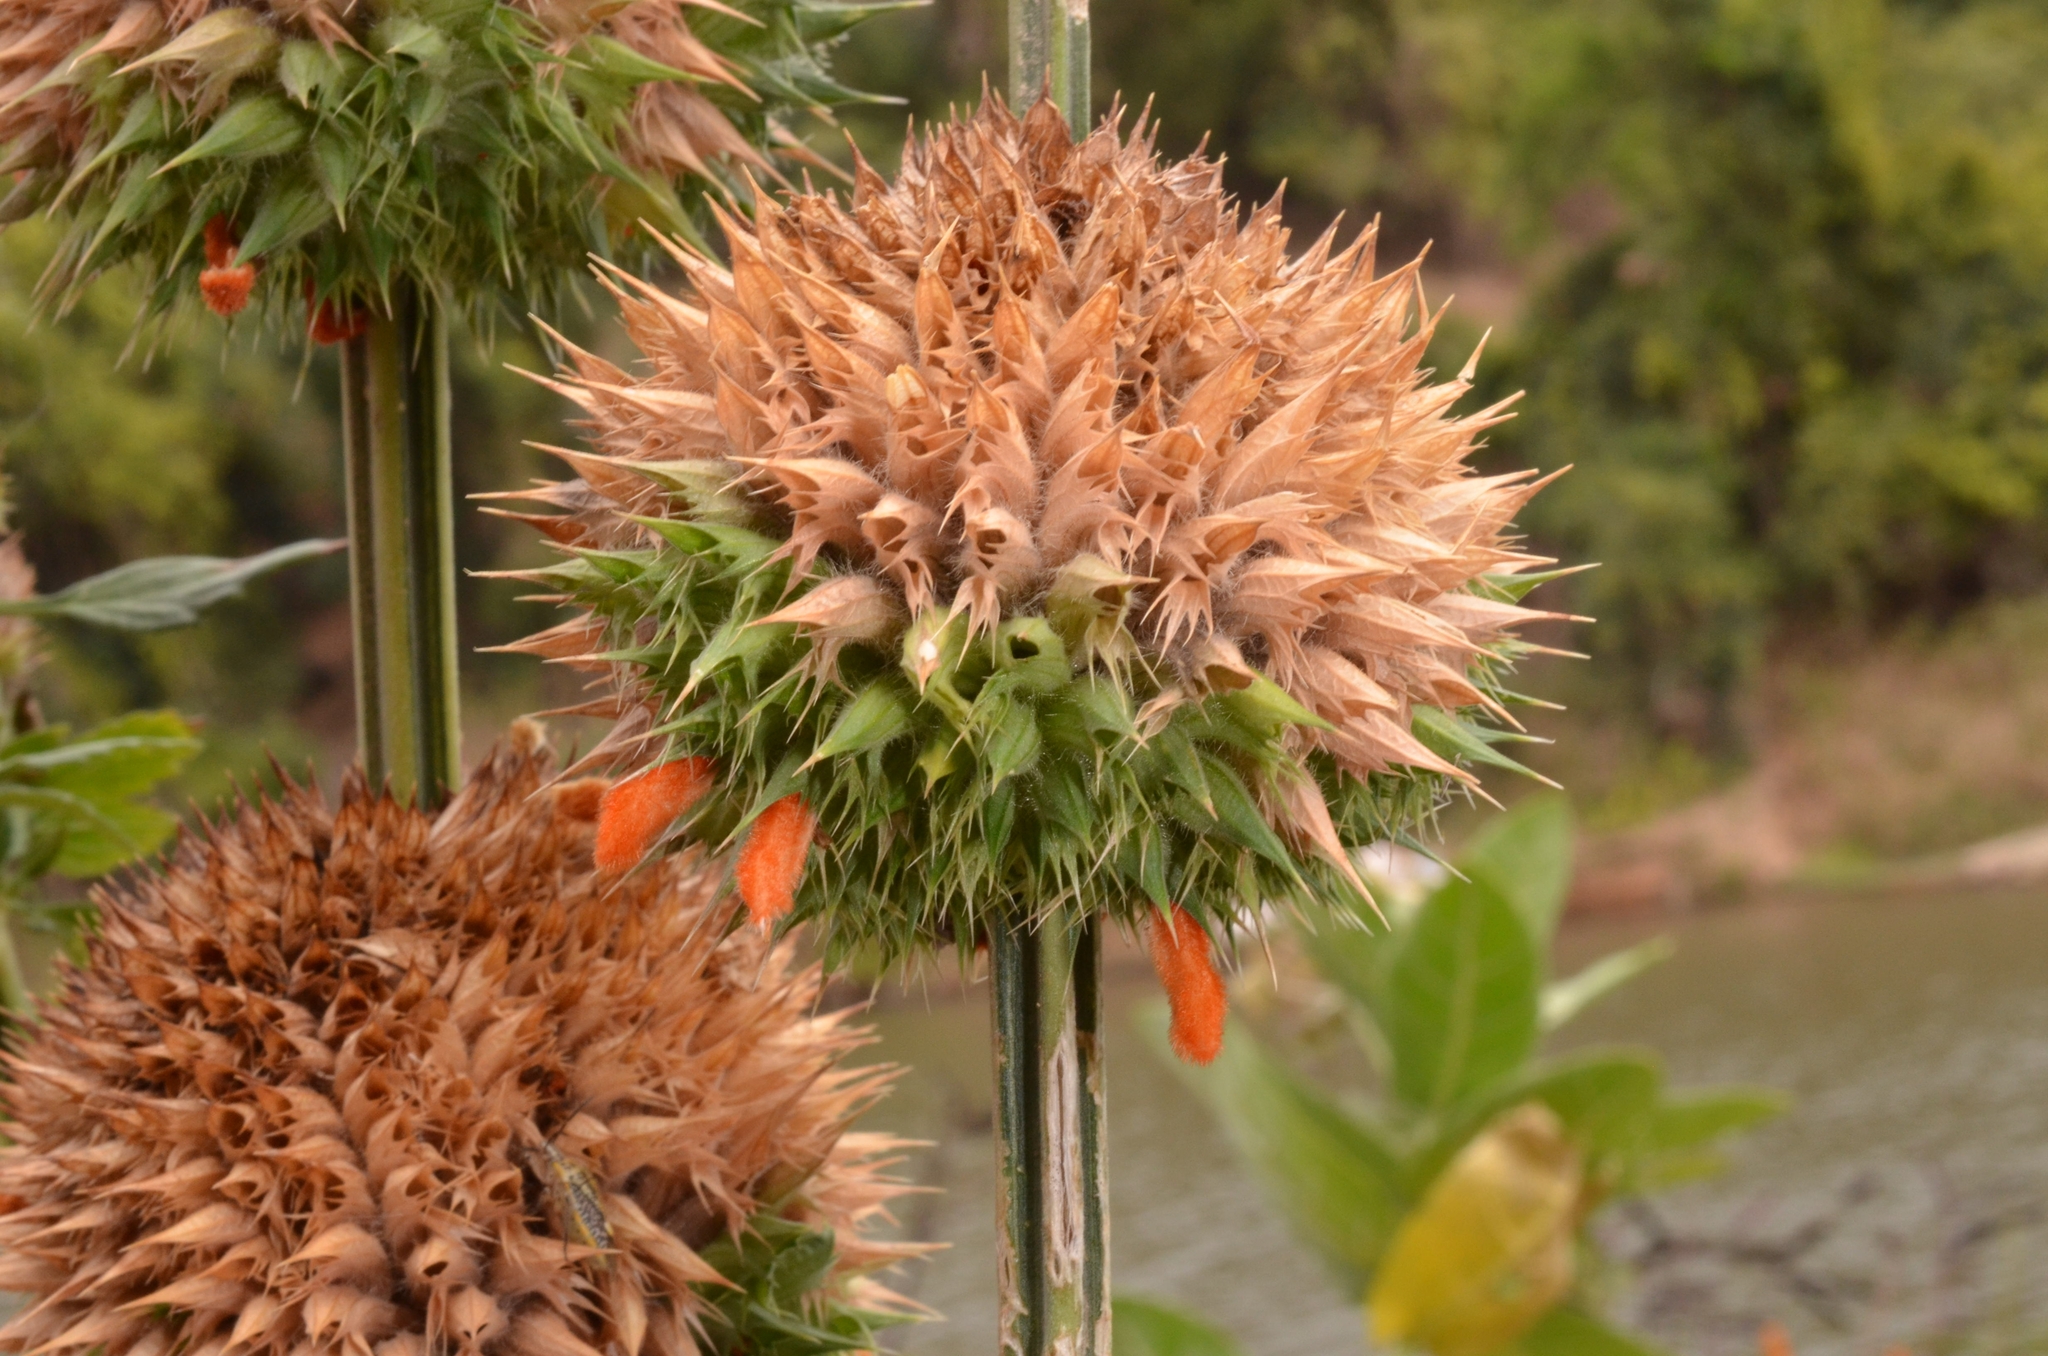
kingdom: Plantae
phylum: Tracheophyta
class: Magnoliopsida
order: Lamiales
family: Lamiaceae
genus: Leonotis
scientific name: Leonotis nepetifolia
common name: Christmas candlestick
